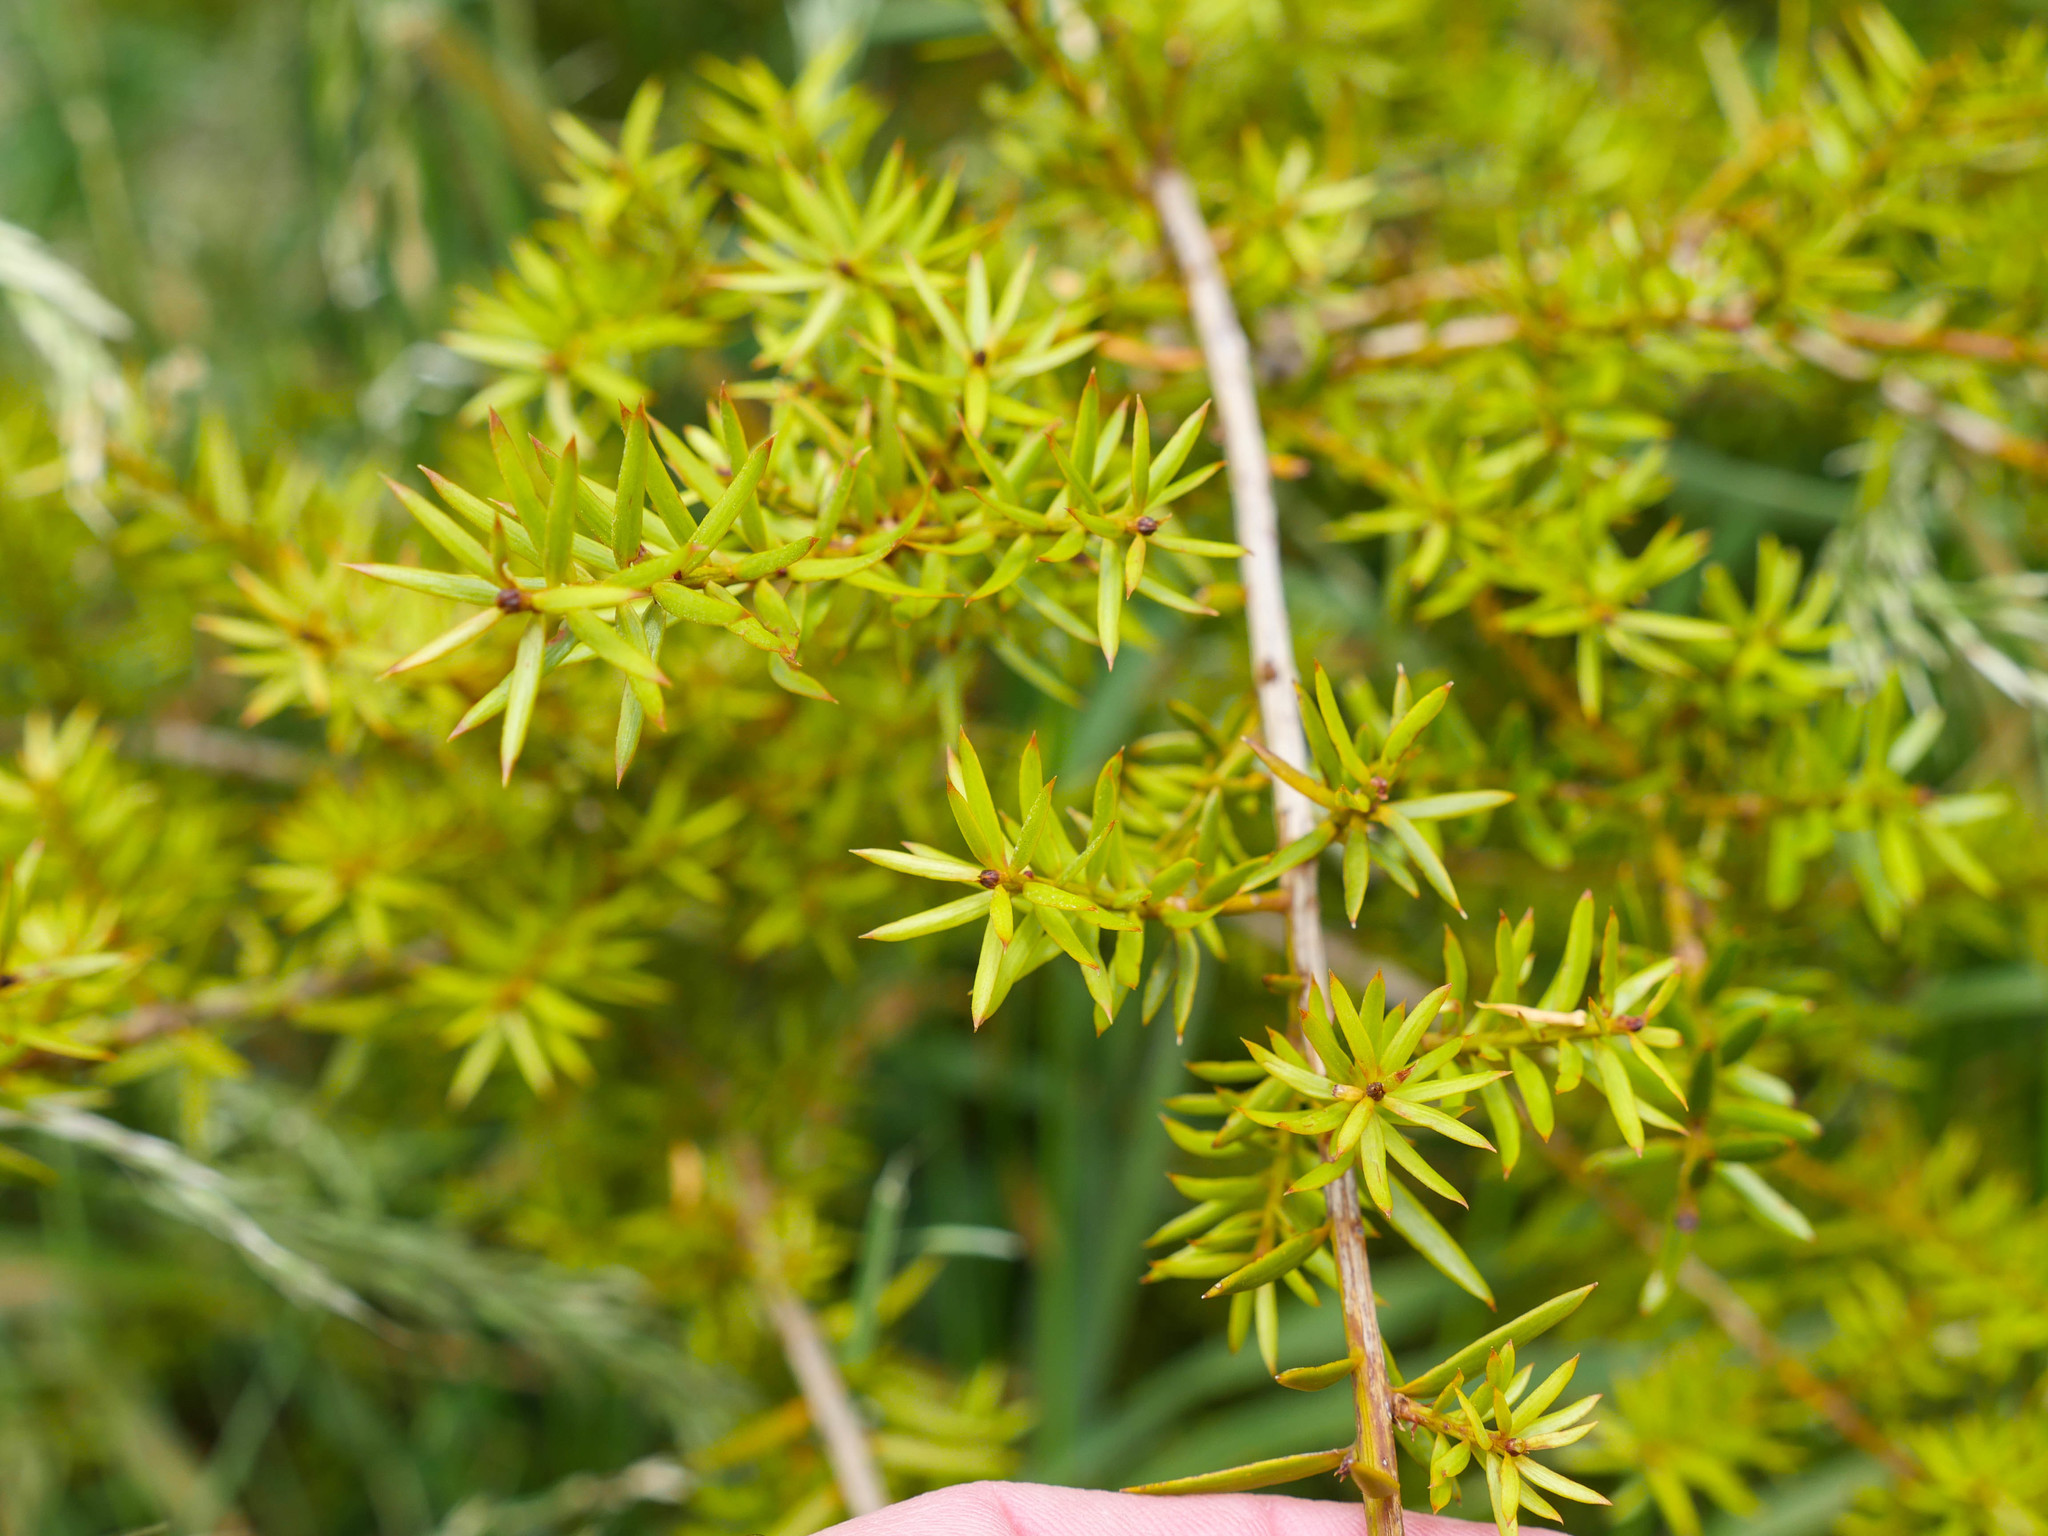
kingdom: Plantae
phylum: Tracheophyta
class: Pinopsida
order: Pinales
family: Podocarpaceae
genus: Podocarpus
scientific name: Podocarpus totara
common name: Totara
